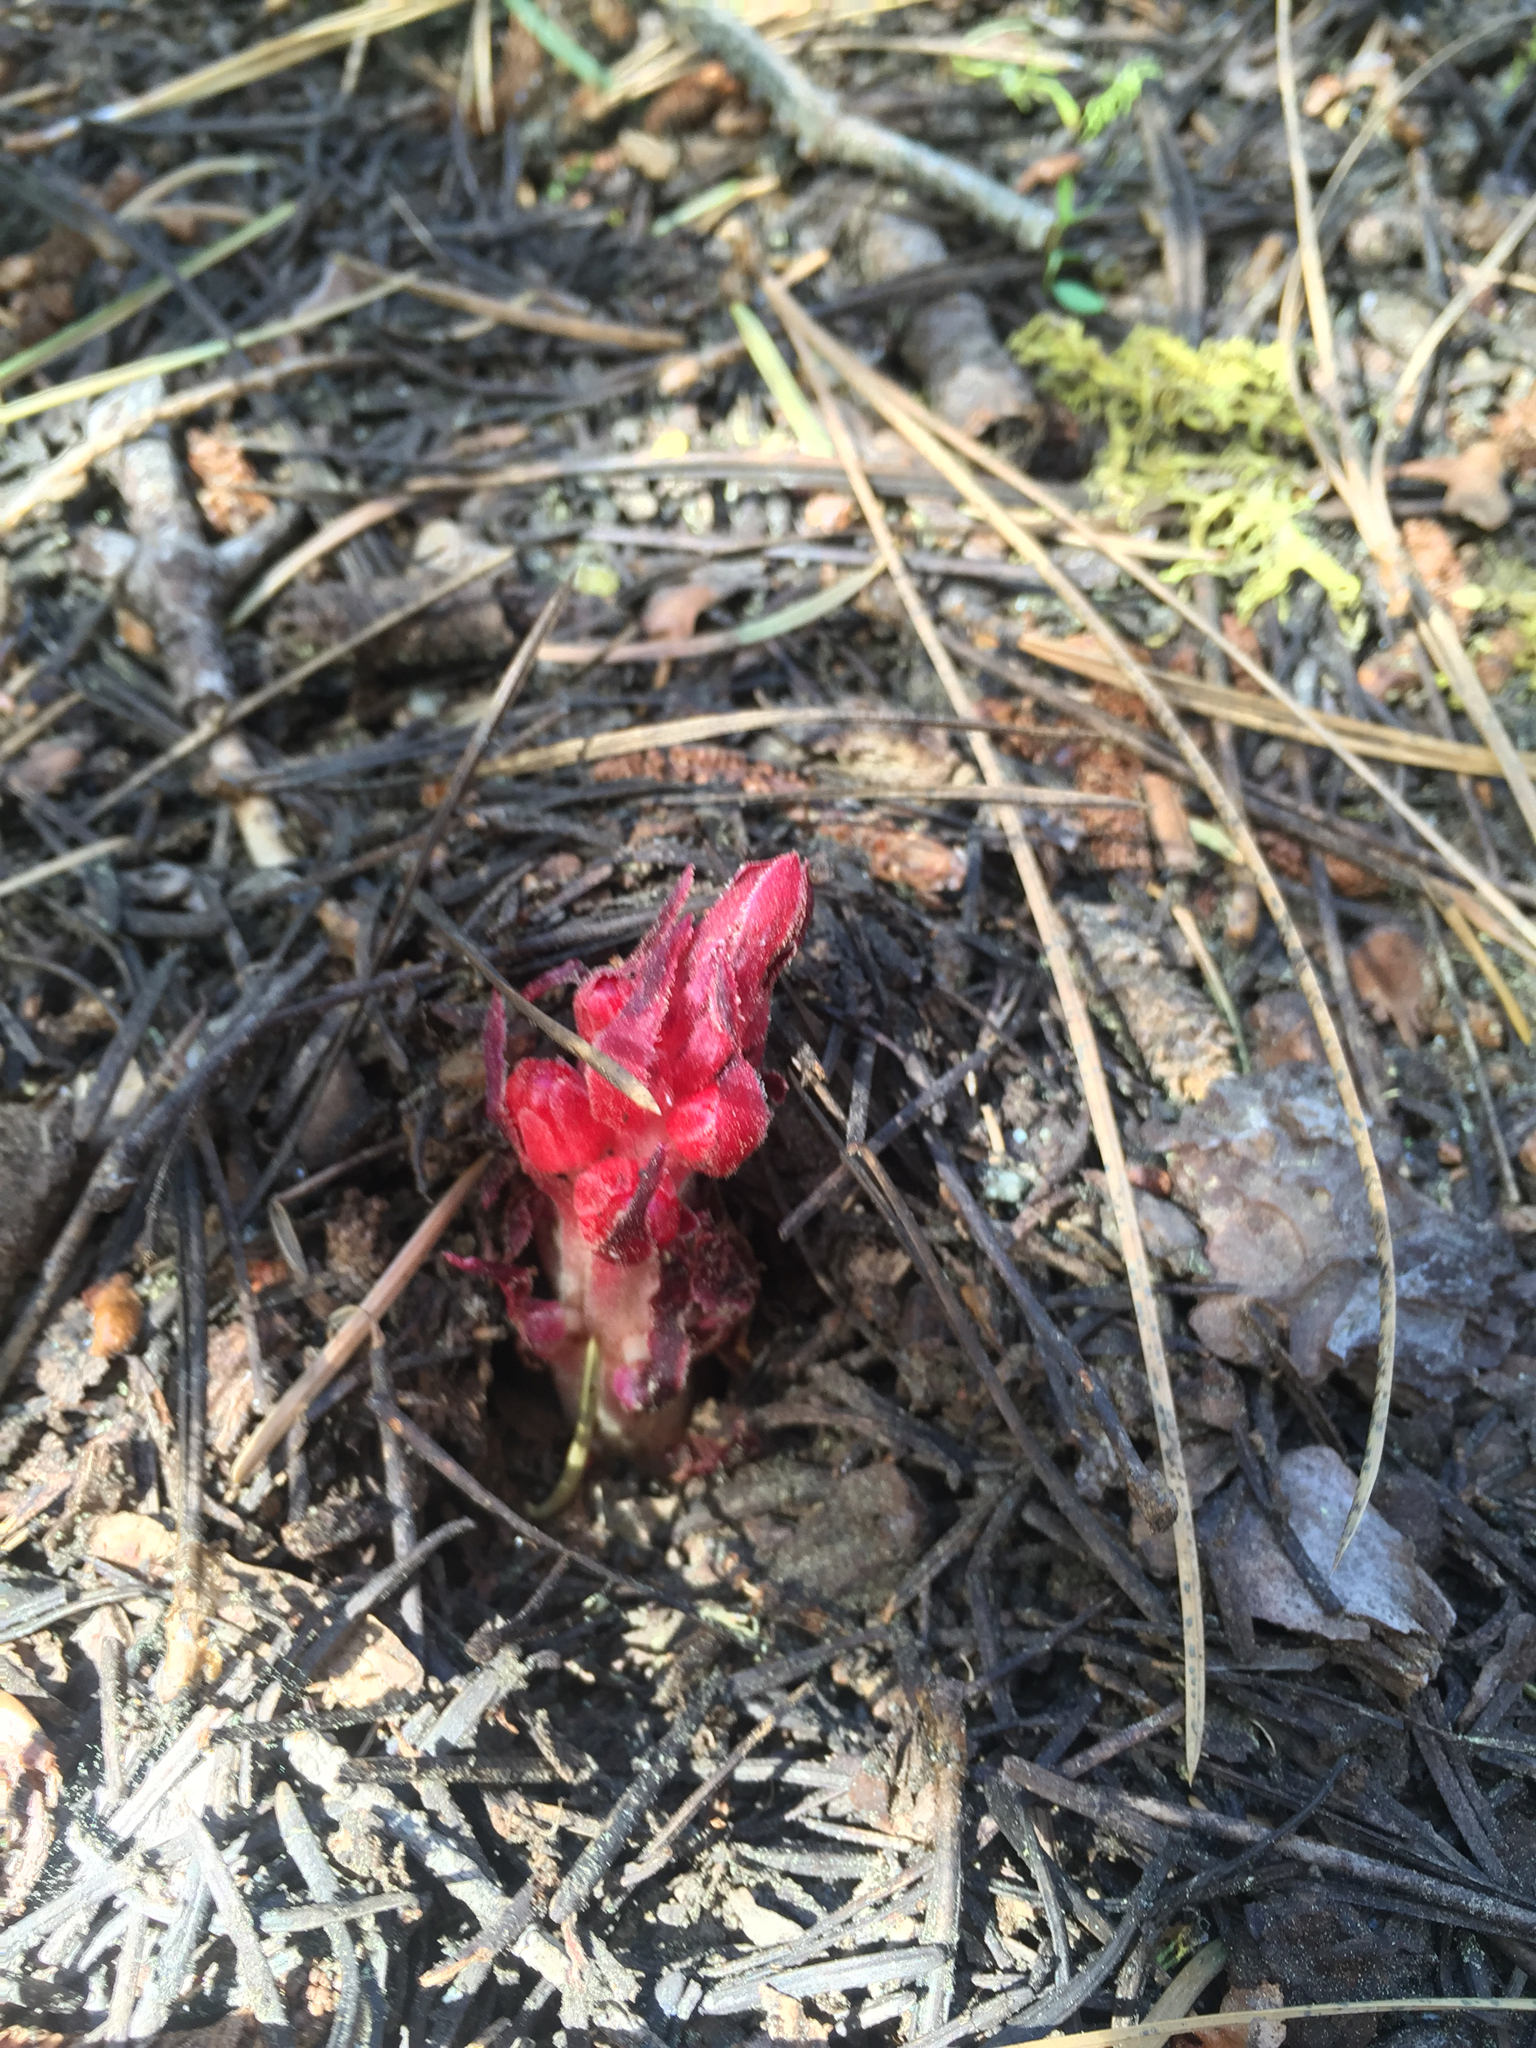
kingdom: Plantae
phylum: Tracheophyta
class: Magnoliopsida
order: Ericales
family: Ericaceae
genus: Sarcodes
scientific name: Sarcodes sanguinea
